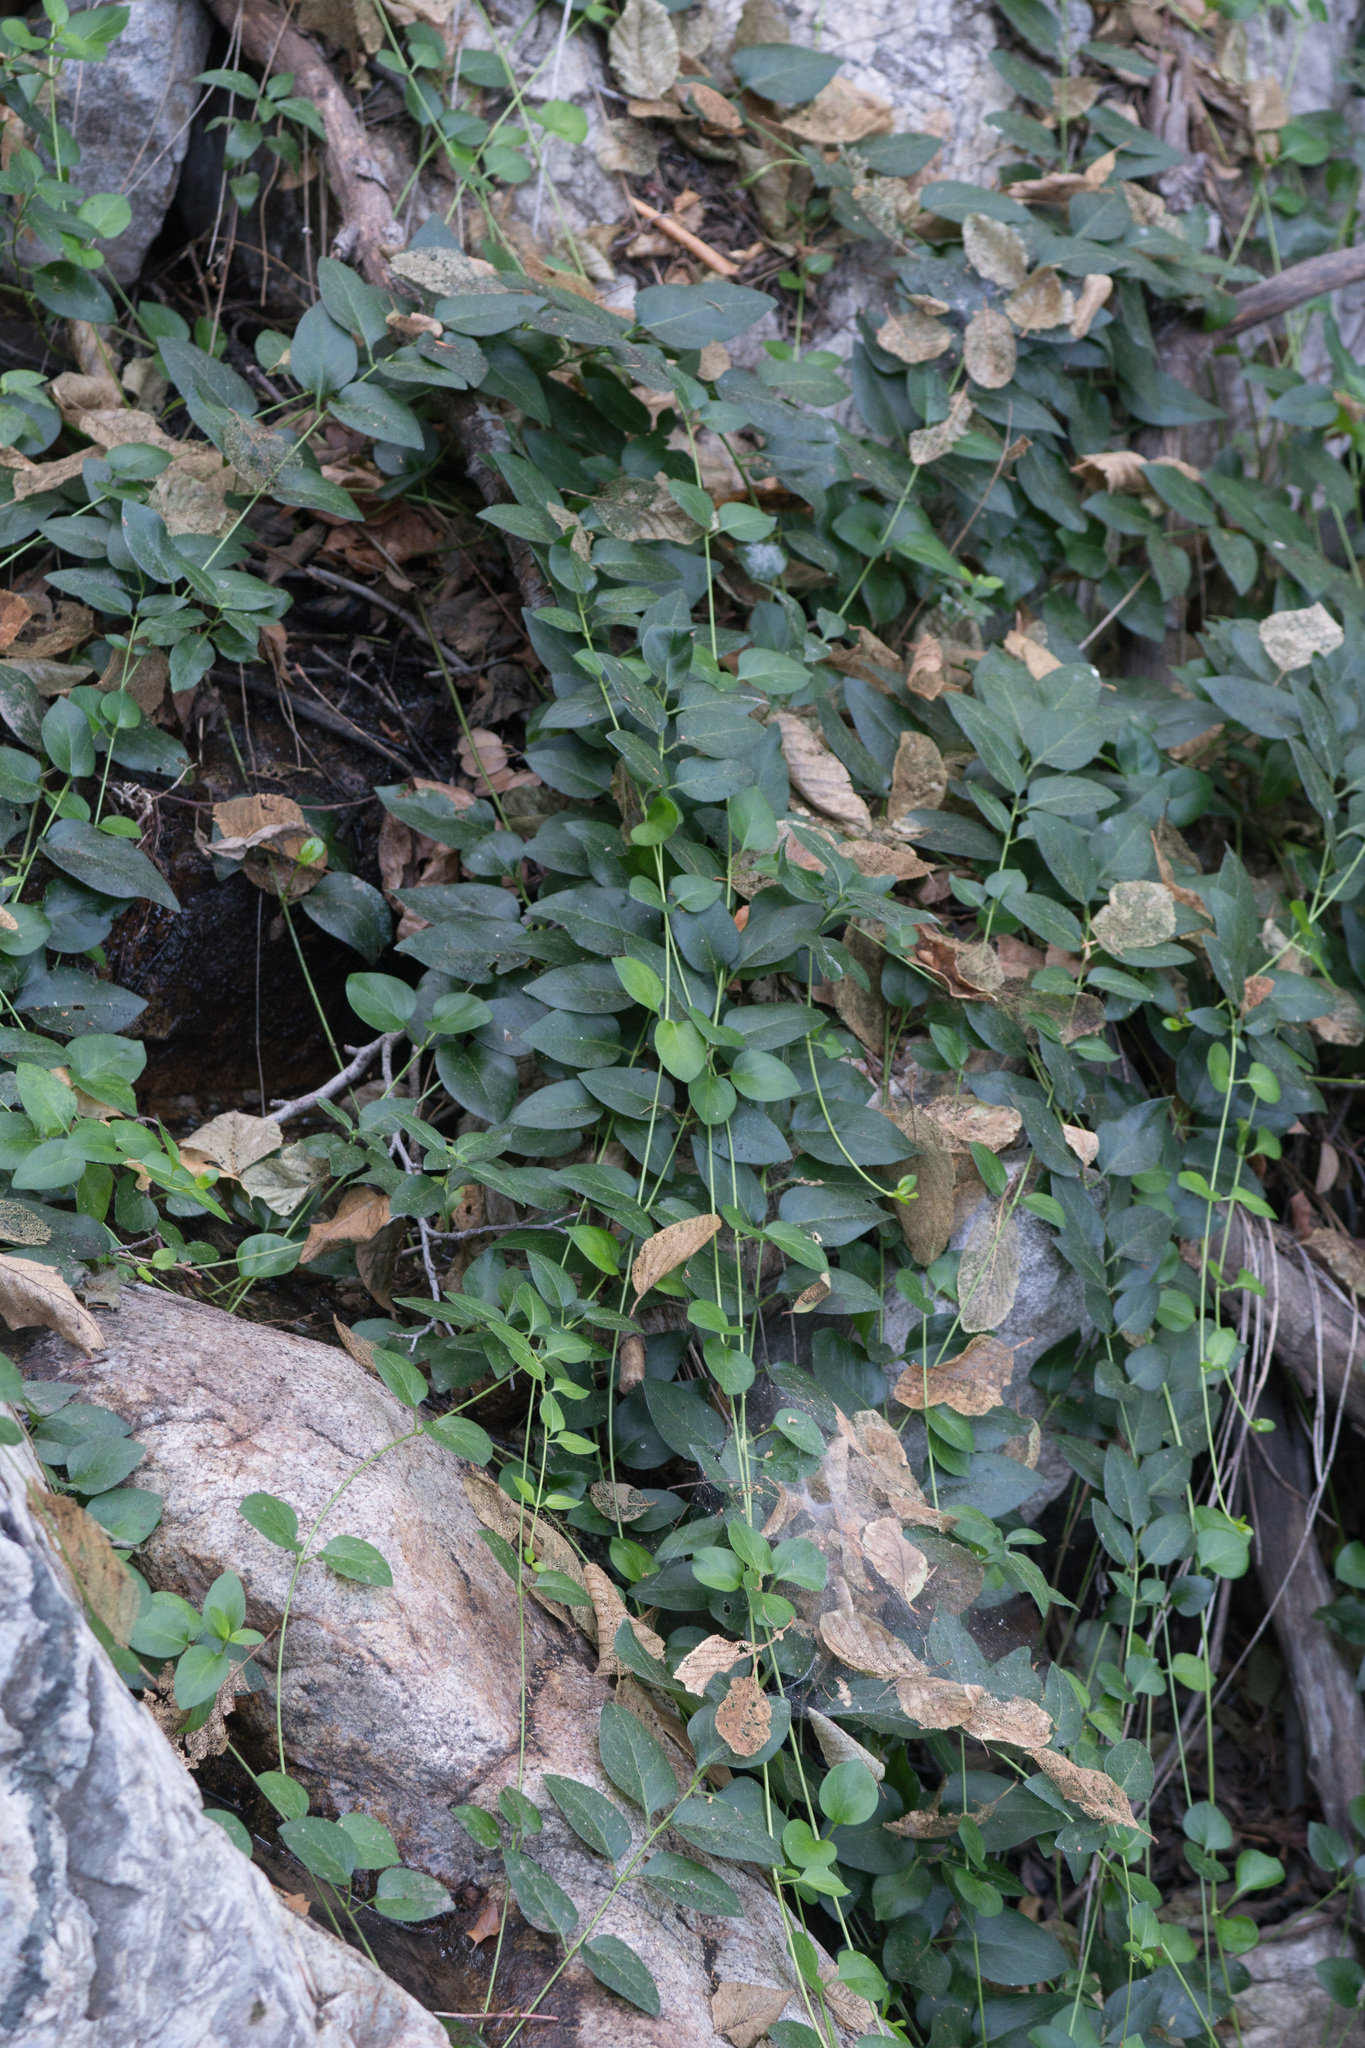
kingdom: Plantae
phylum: Tracheophyta
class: Magnoliopsida
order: Gentianales
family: Apocynaceae
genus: Vinca
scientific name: Vinca major
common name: Greater periwinkle
